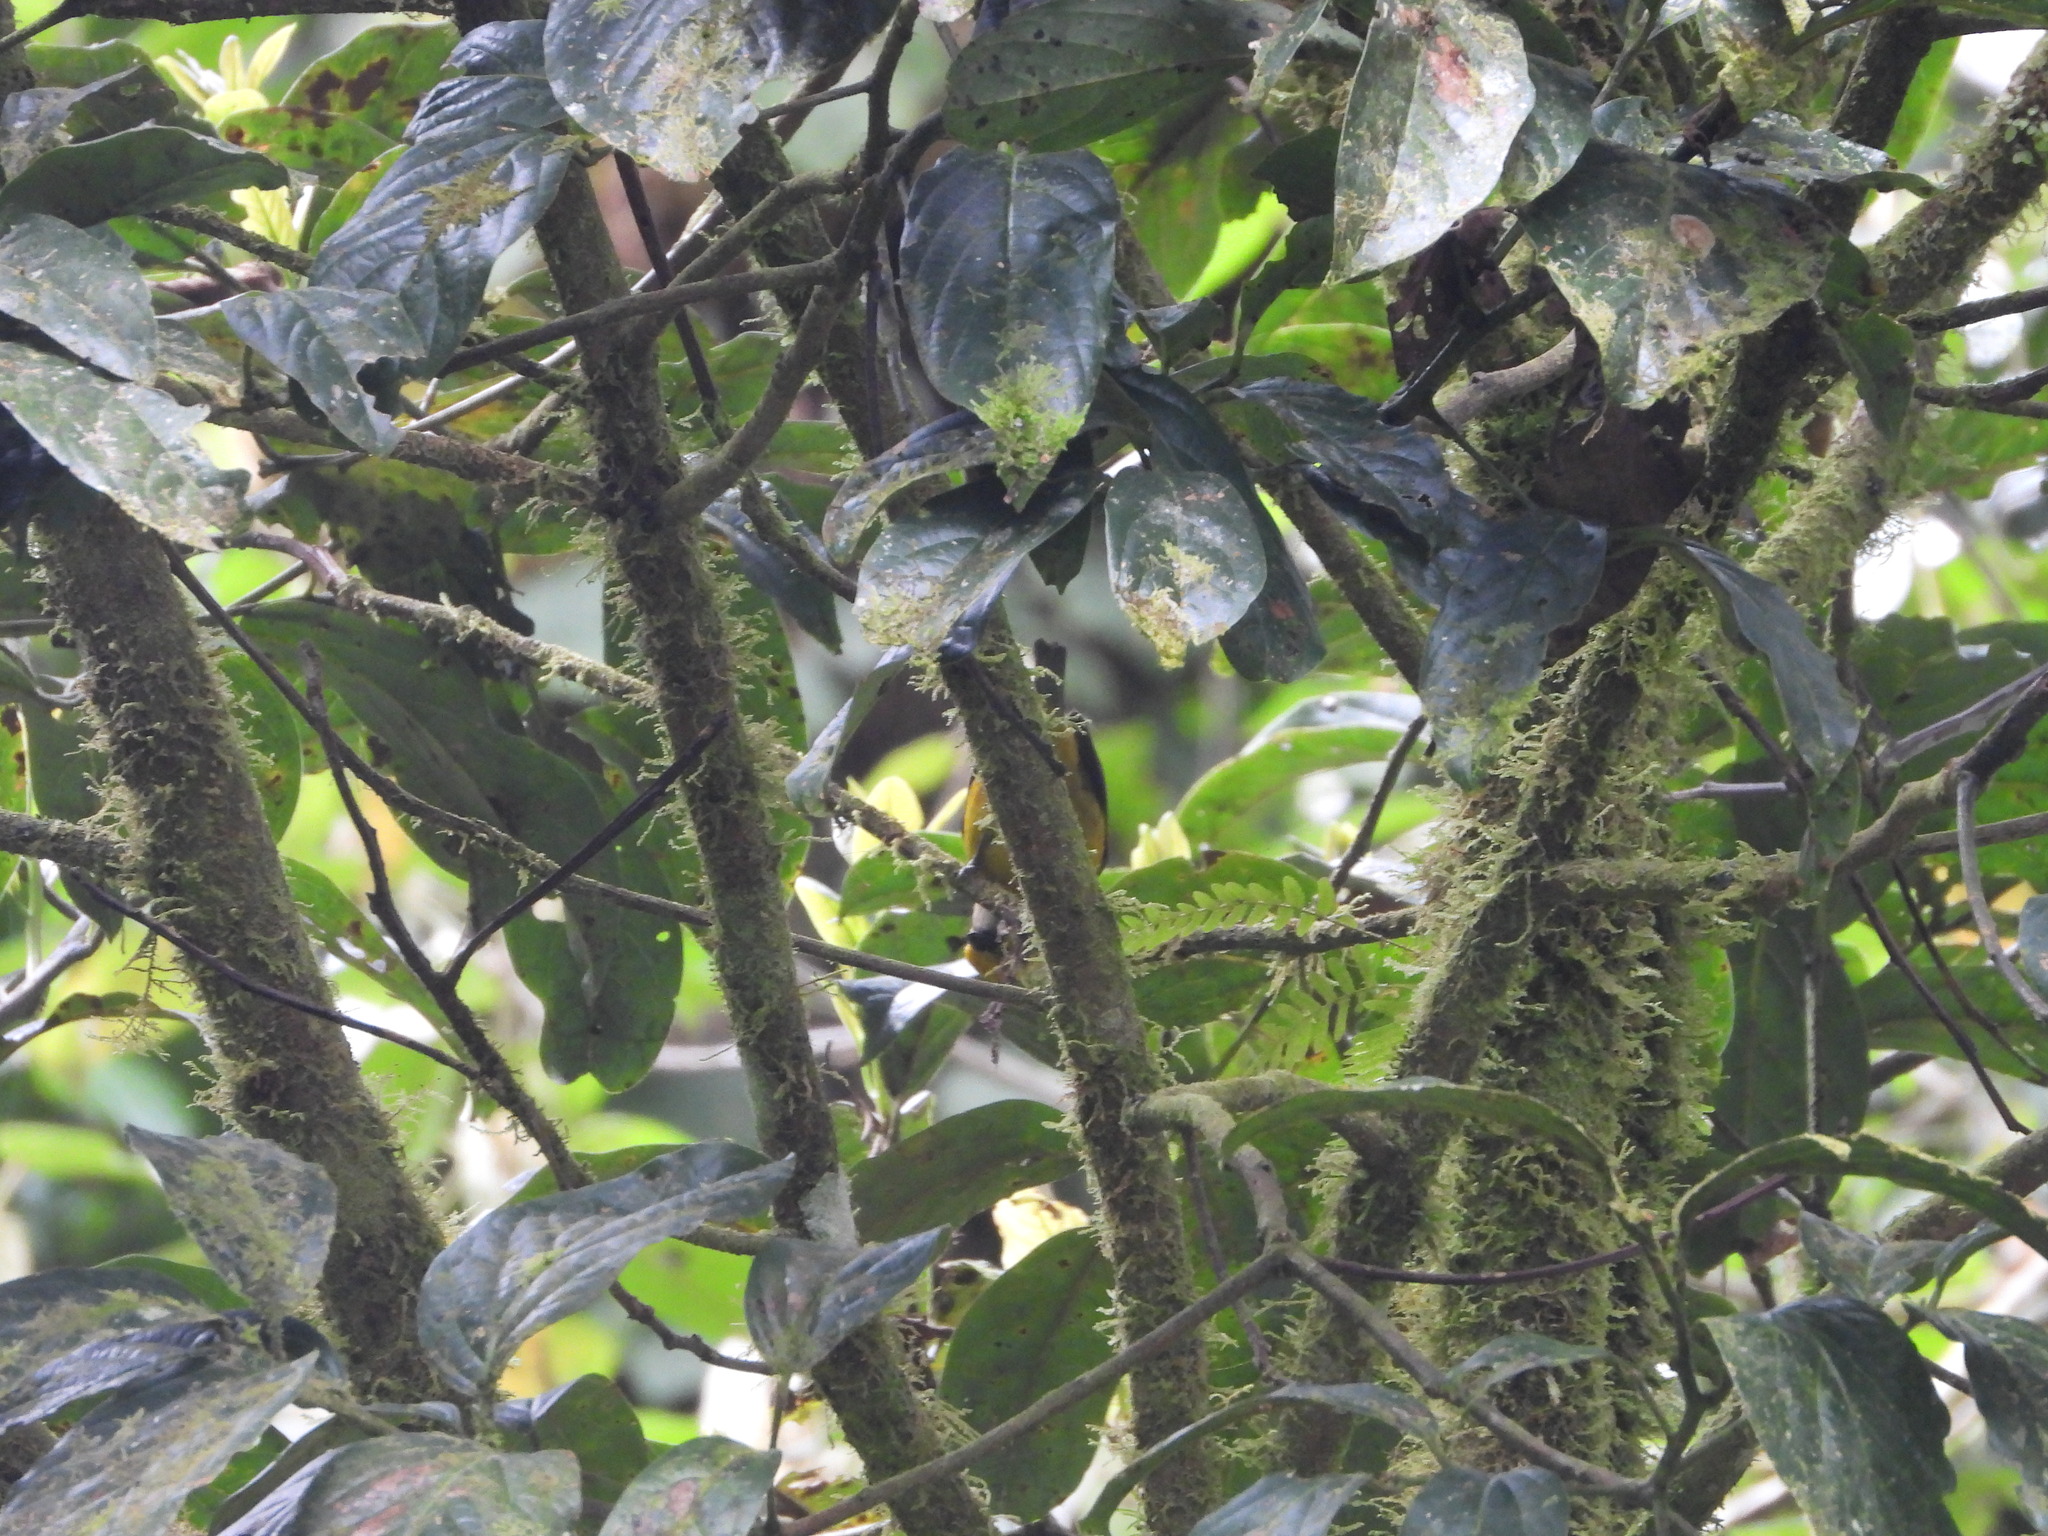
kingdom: Animalia
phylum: Chordata
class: Aves
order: Passeriformes
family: Thraupidae
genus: Tangara
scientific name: Tangara icterocephala
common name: Silver-throated tanager
